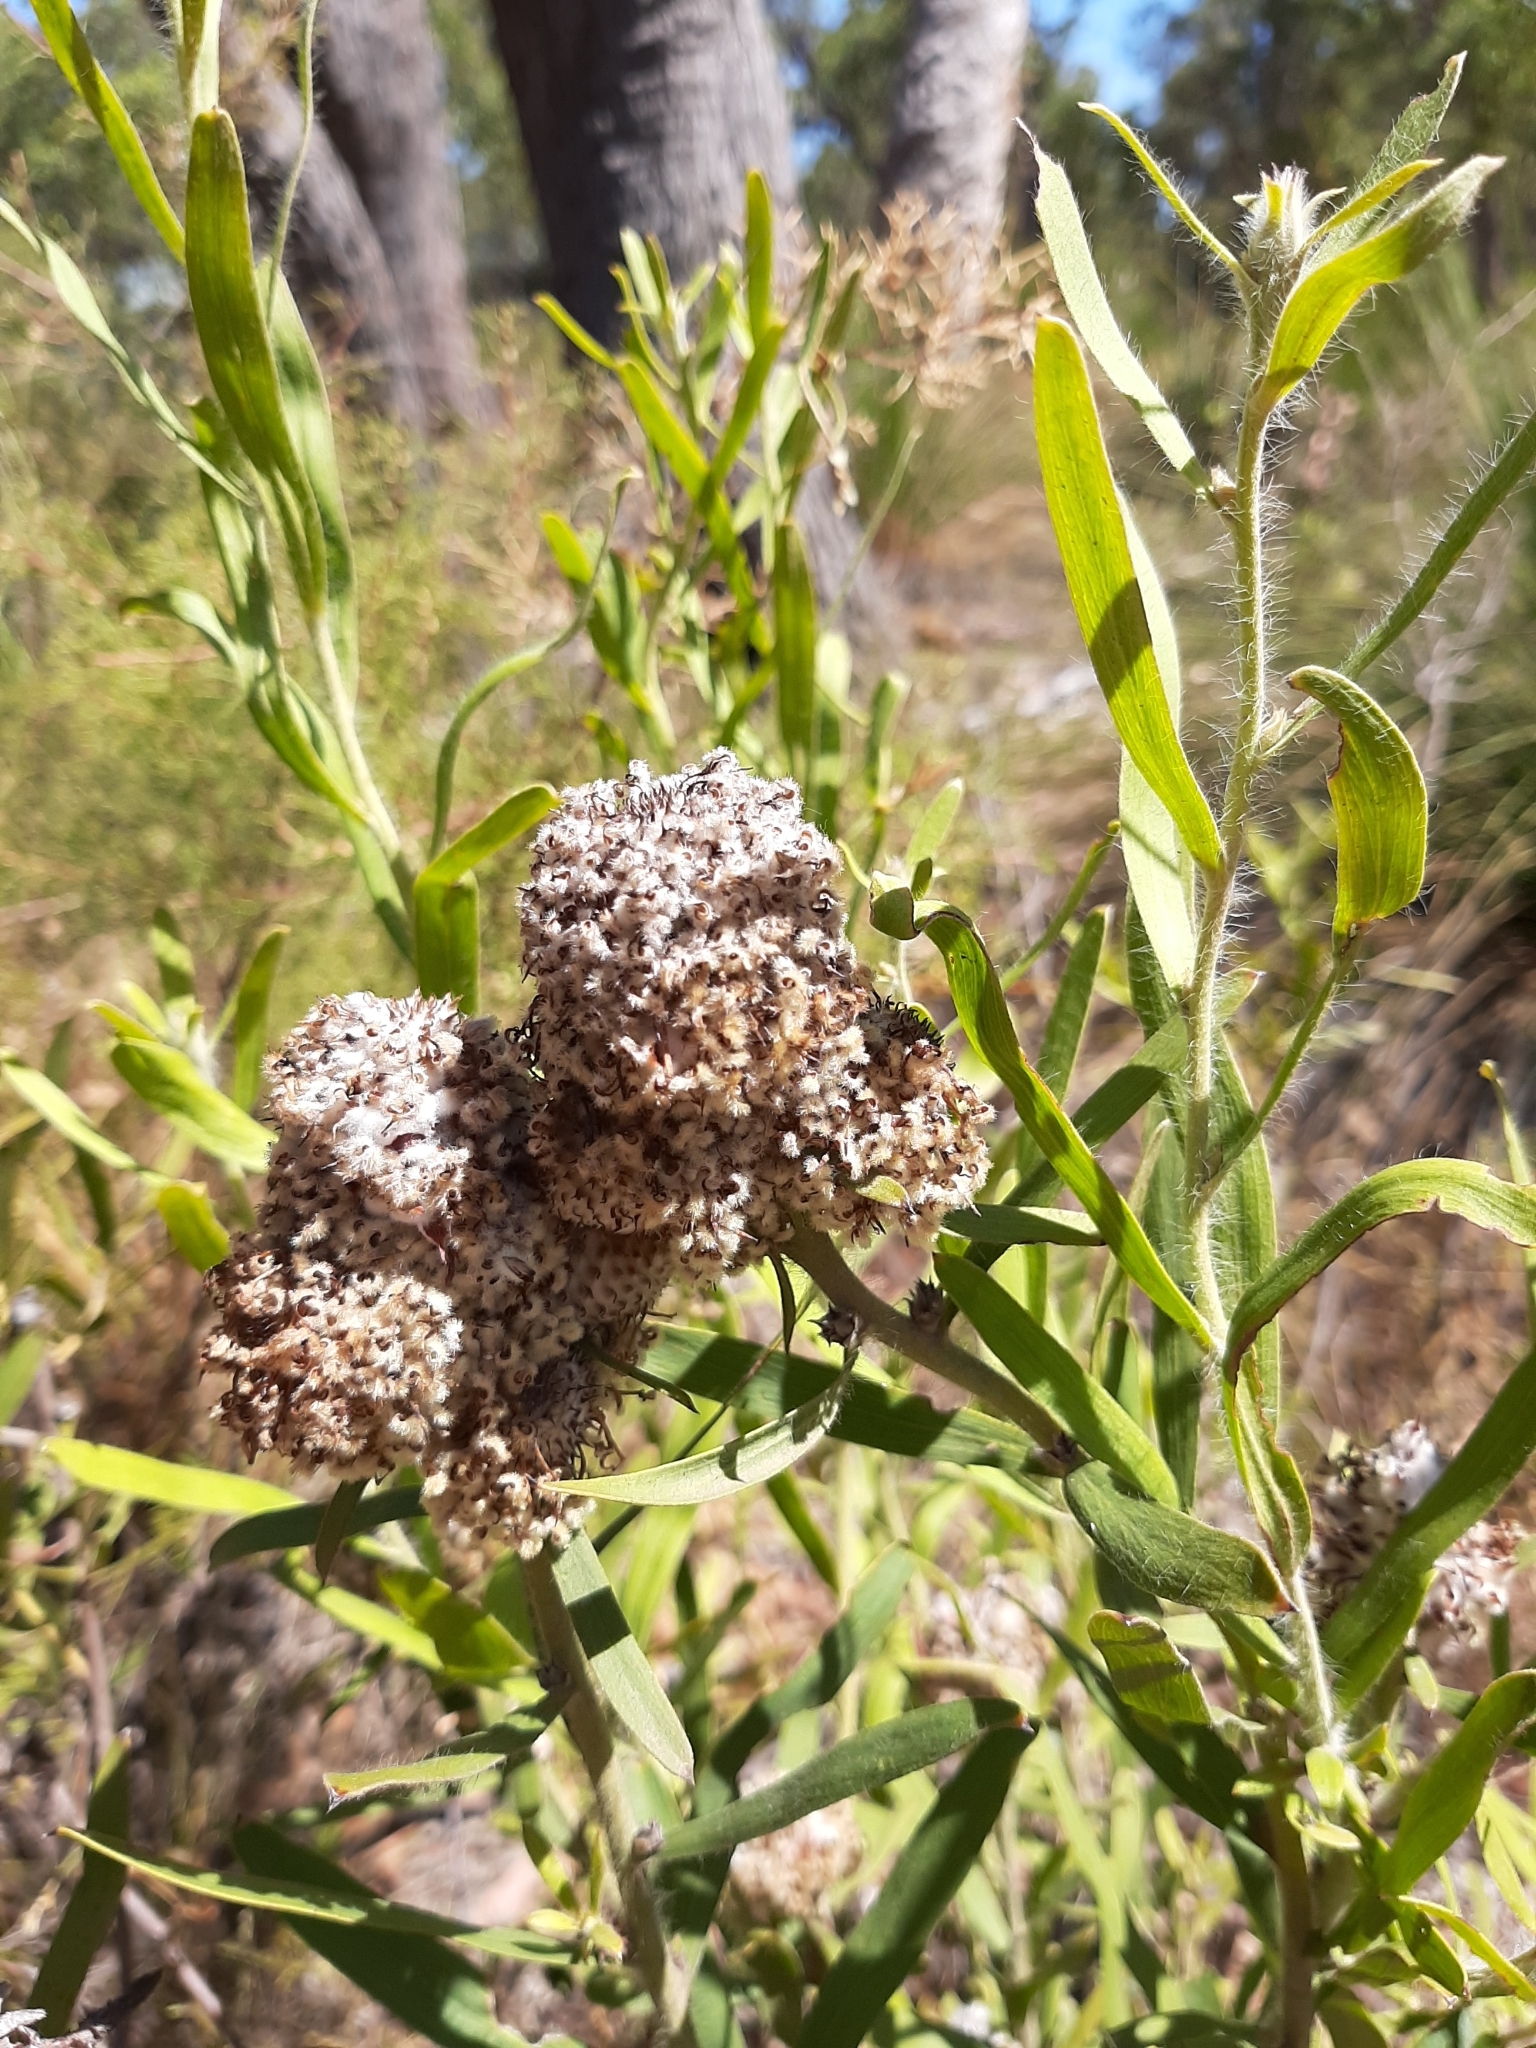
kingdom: Plantae
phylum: Tracheophyta
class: Magnoliopsida
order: Proteales
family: Proteaceae
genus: Isopogon
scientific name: Isopogon sphaerocephalus
